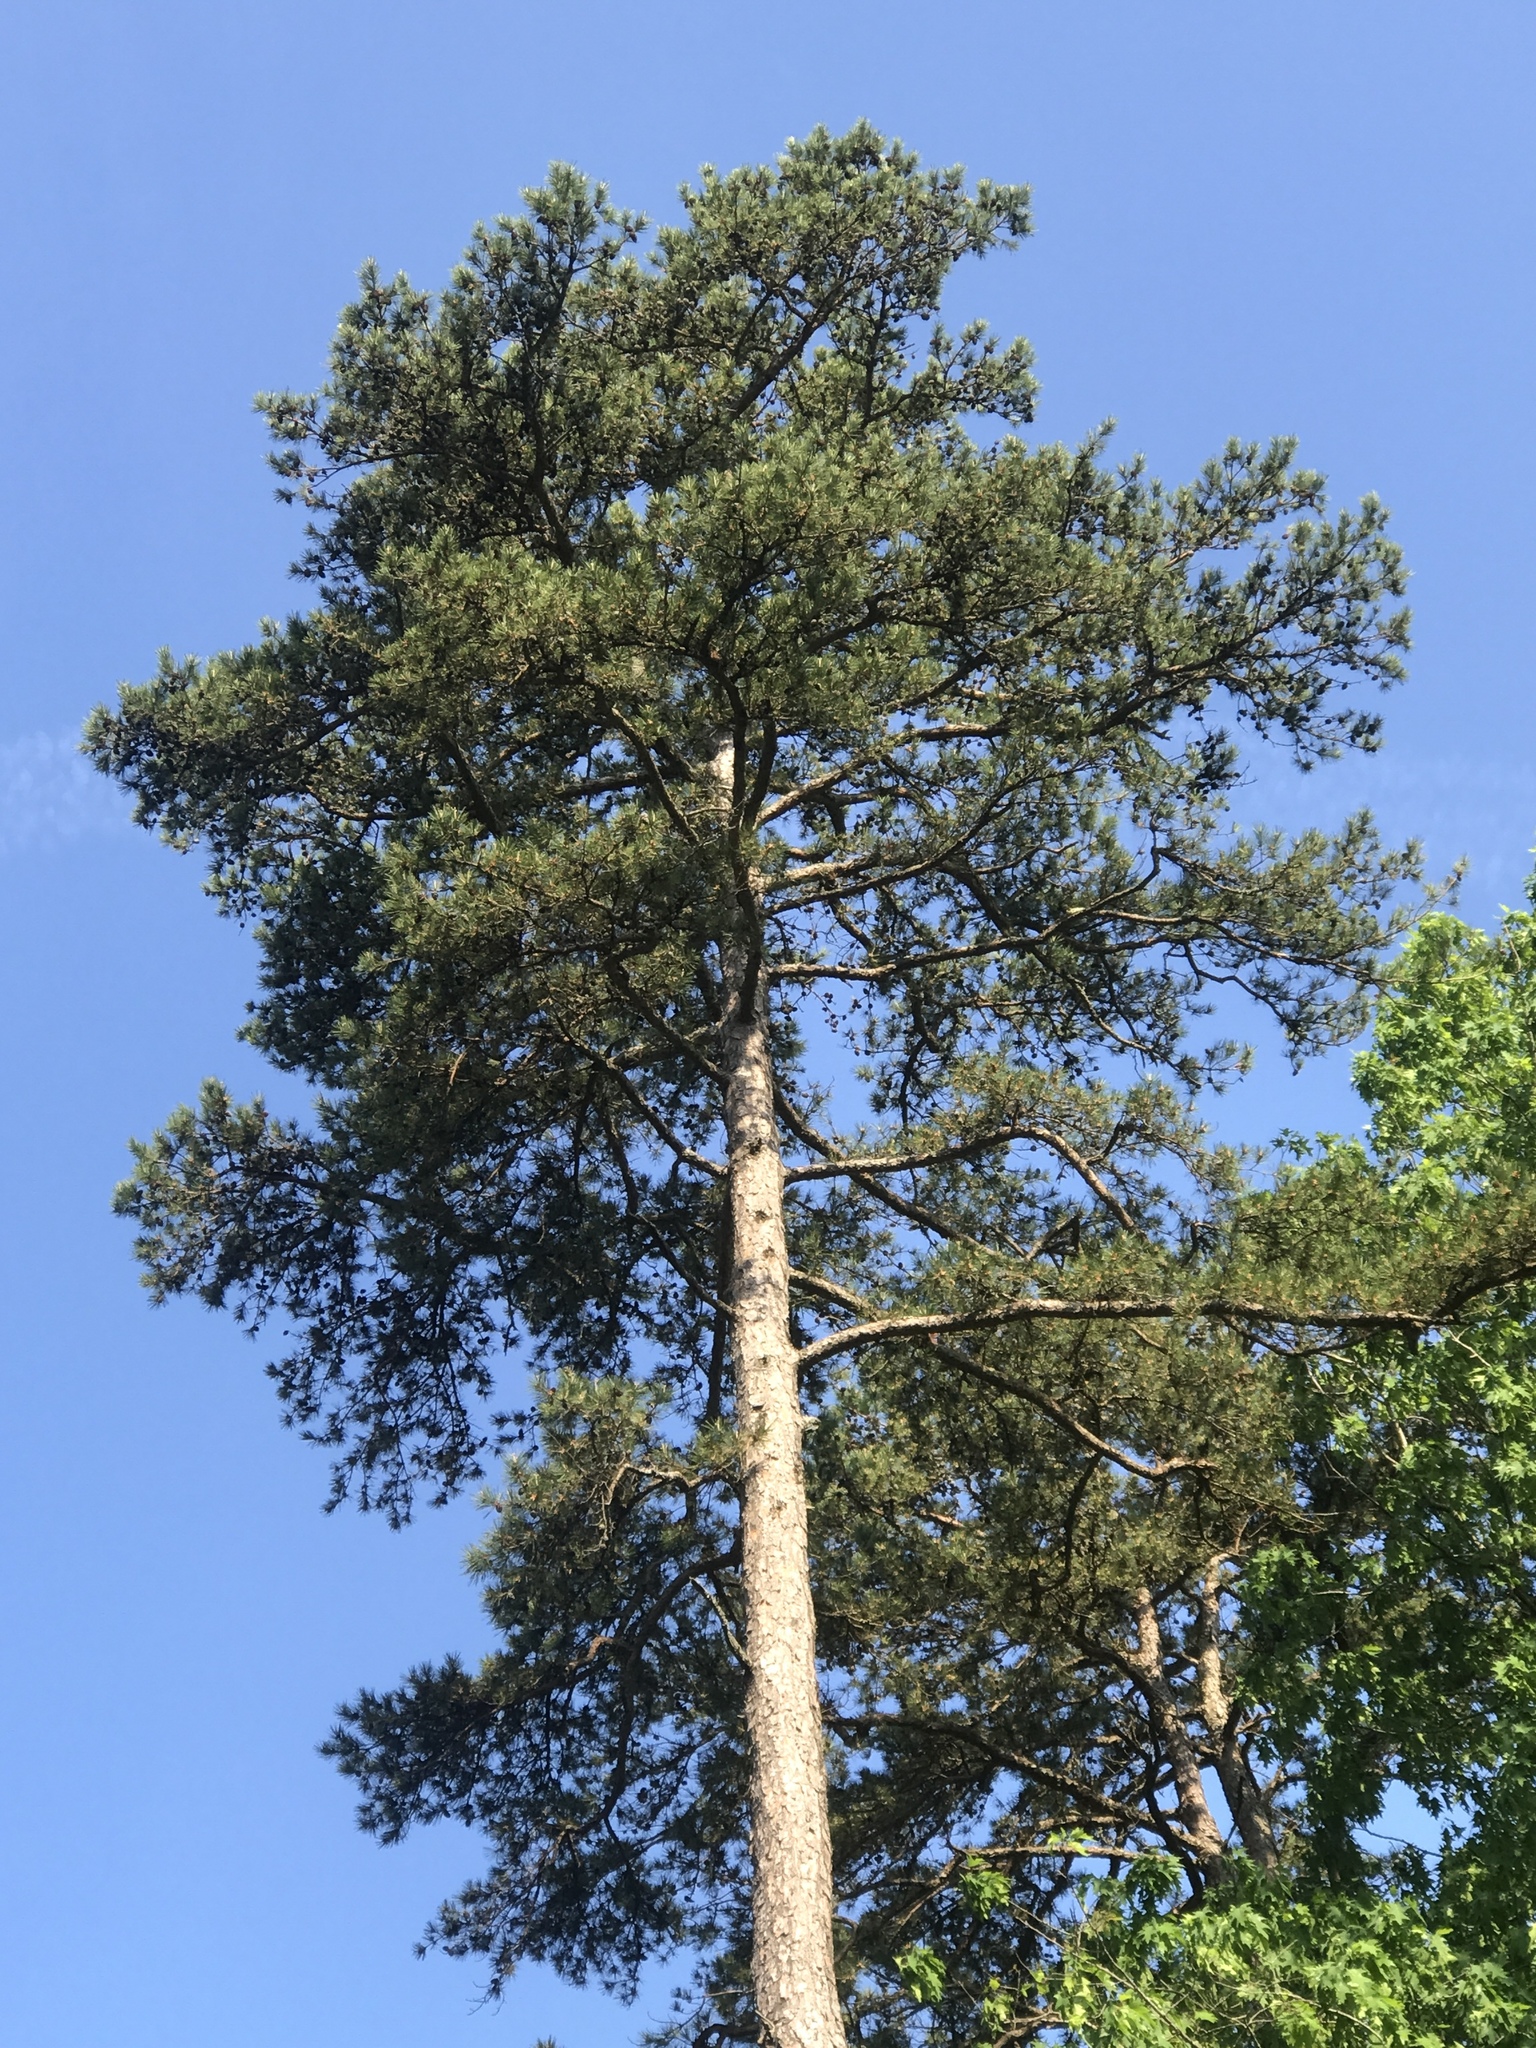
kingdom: Plantae
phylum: Tracheophyta
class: Pinopsida
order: Pinales
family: Pinaceae
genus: Pinus
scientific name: Pinus echinata
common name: Shortleaf pine
